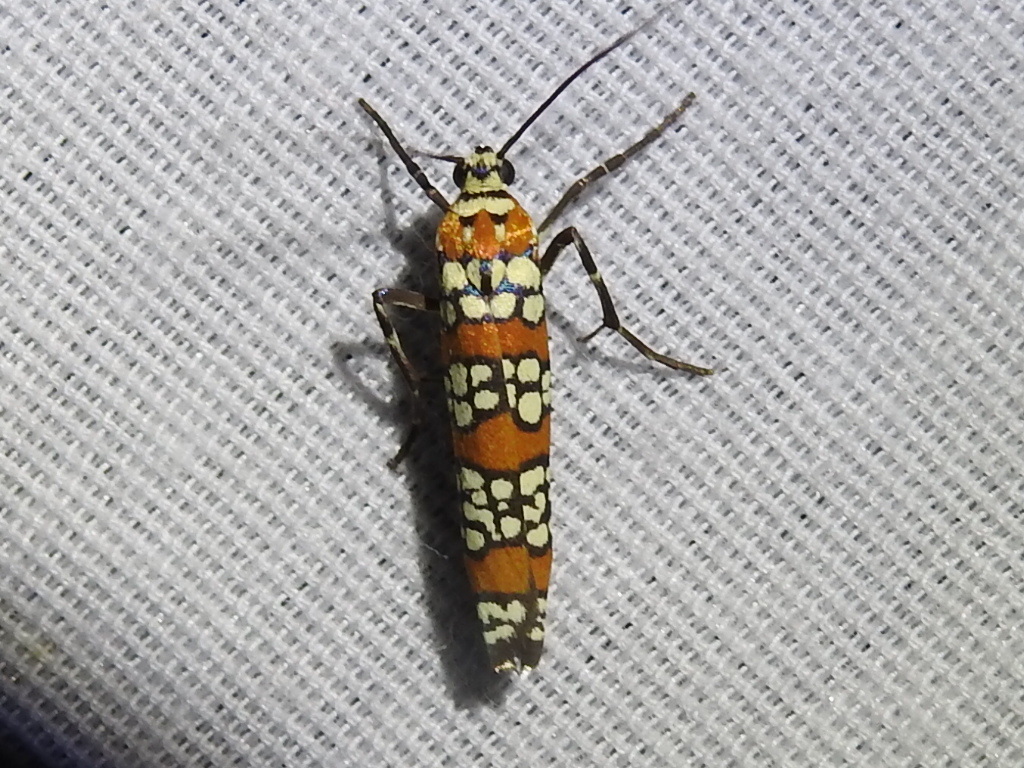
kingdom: Animalia
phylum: Arthropoda
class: Insecta
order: Lepidoptera
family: Attevidae
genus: Atteva
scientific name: Atteva punctella
